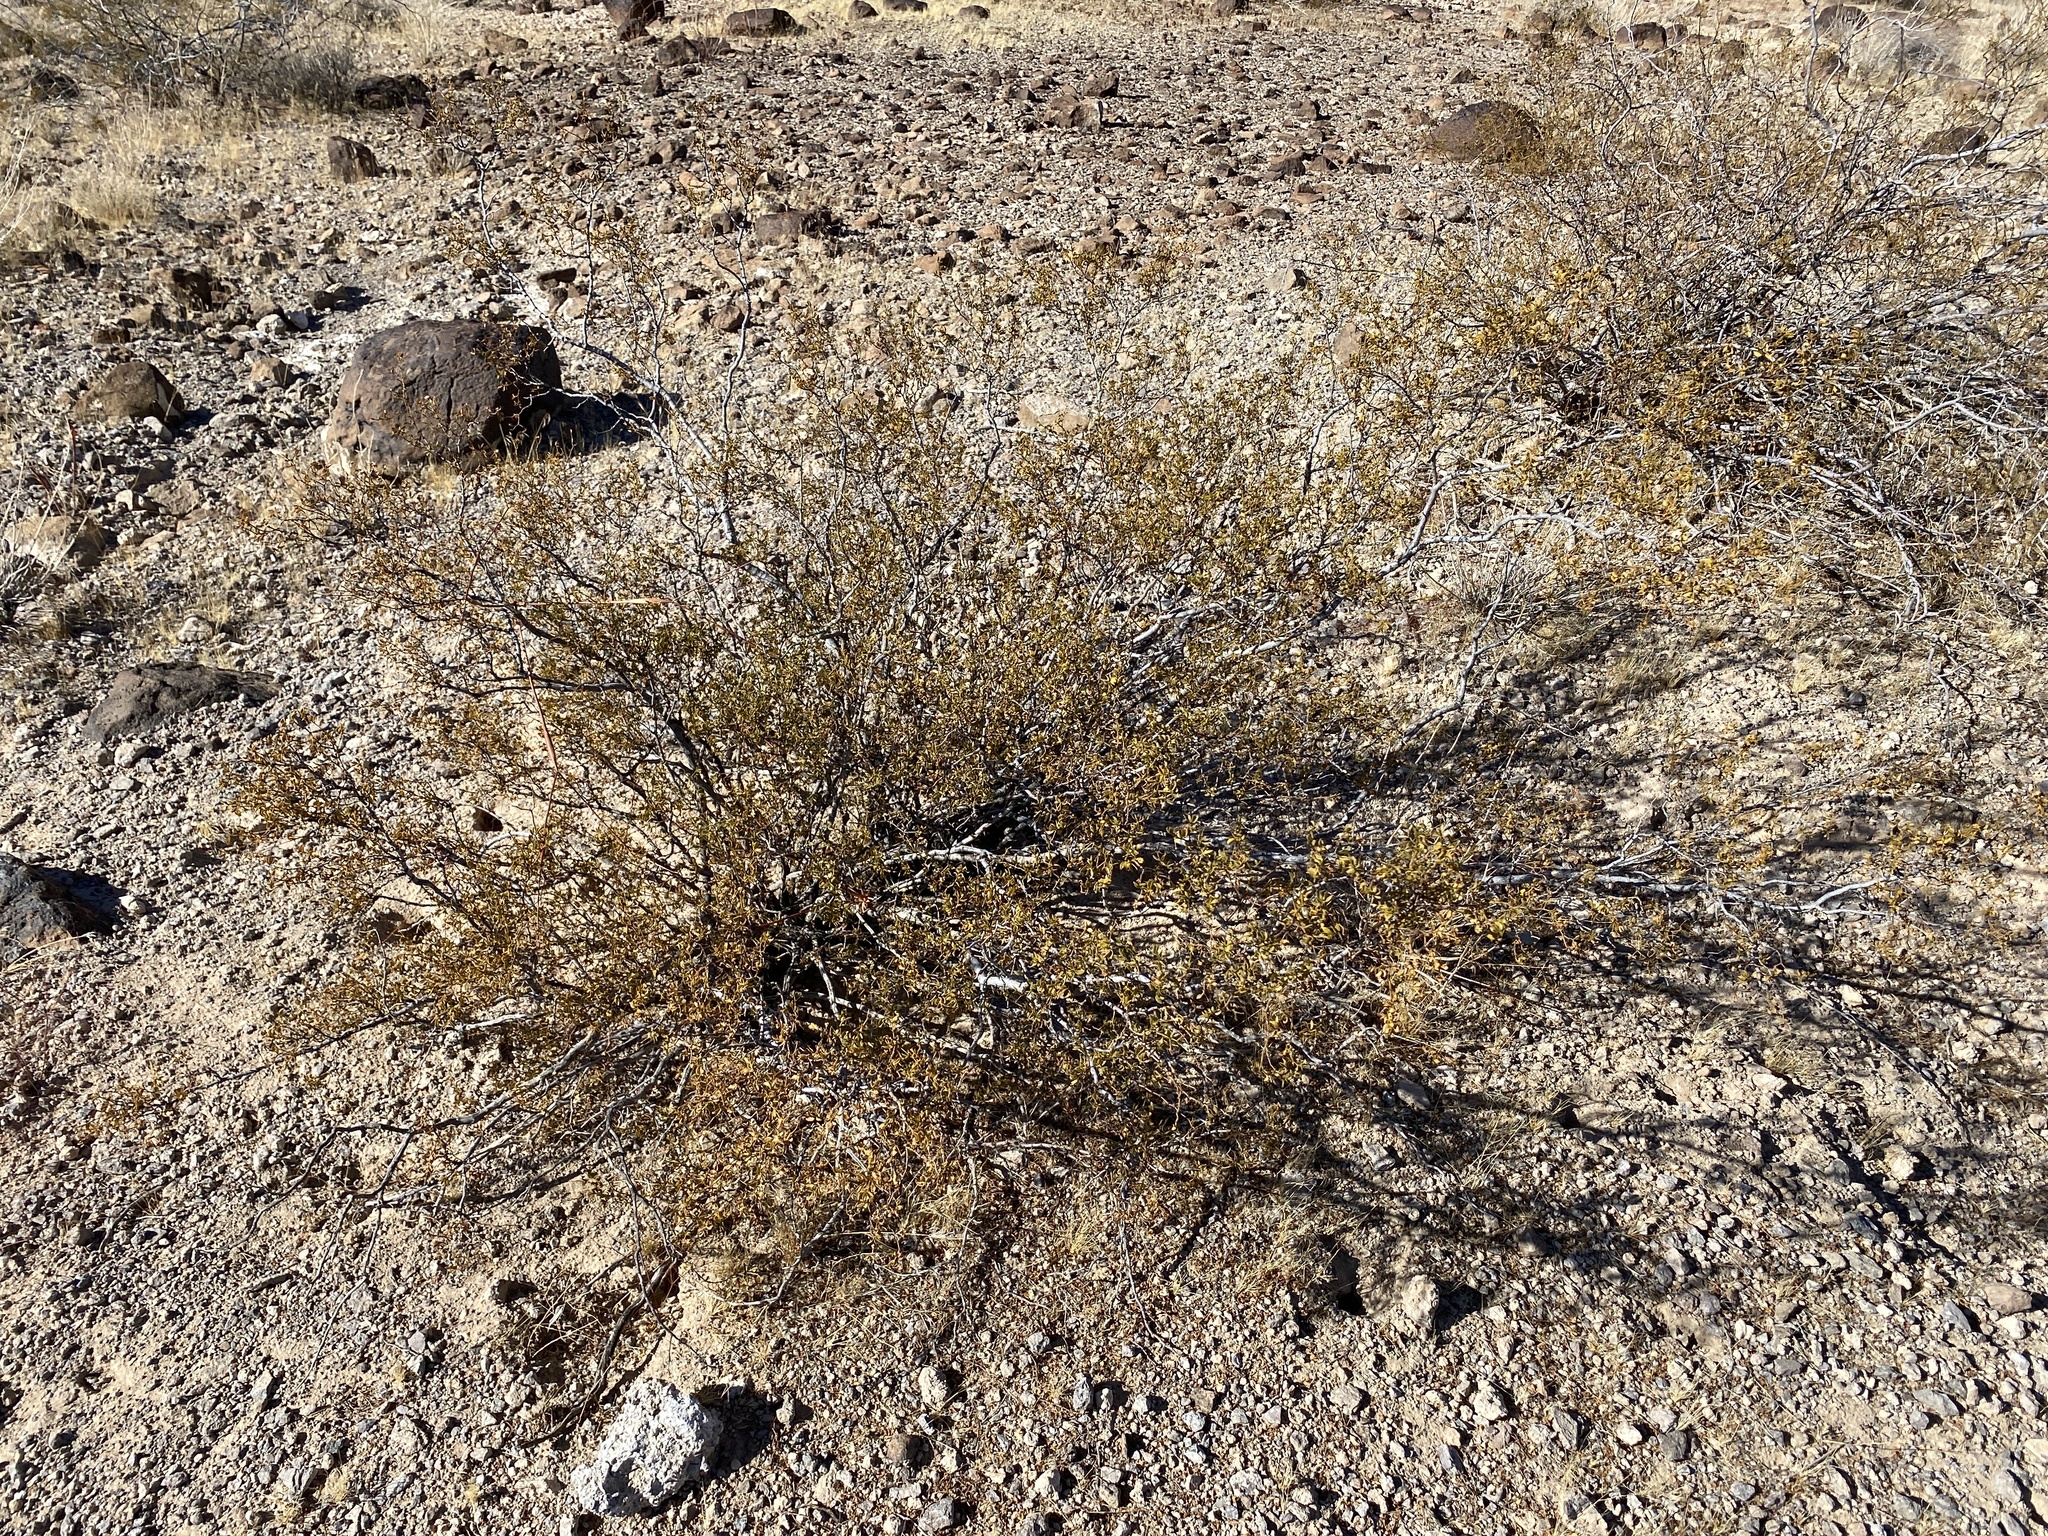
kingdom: Plantae
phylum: Tracheophyta
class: Magnoliopsida
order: Zygophyllales
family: Zygophyllaceae
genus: Larrea
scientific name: Larrea tridentata
